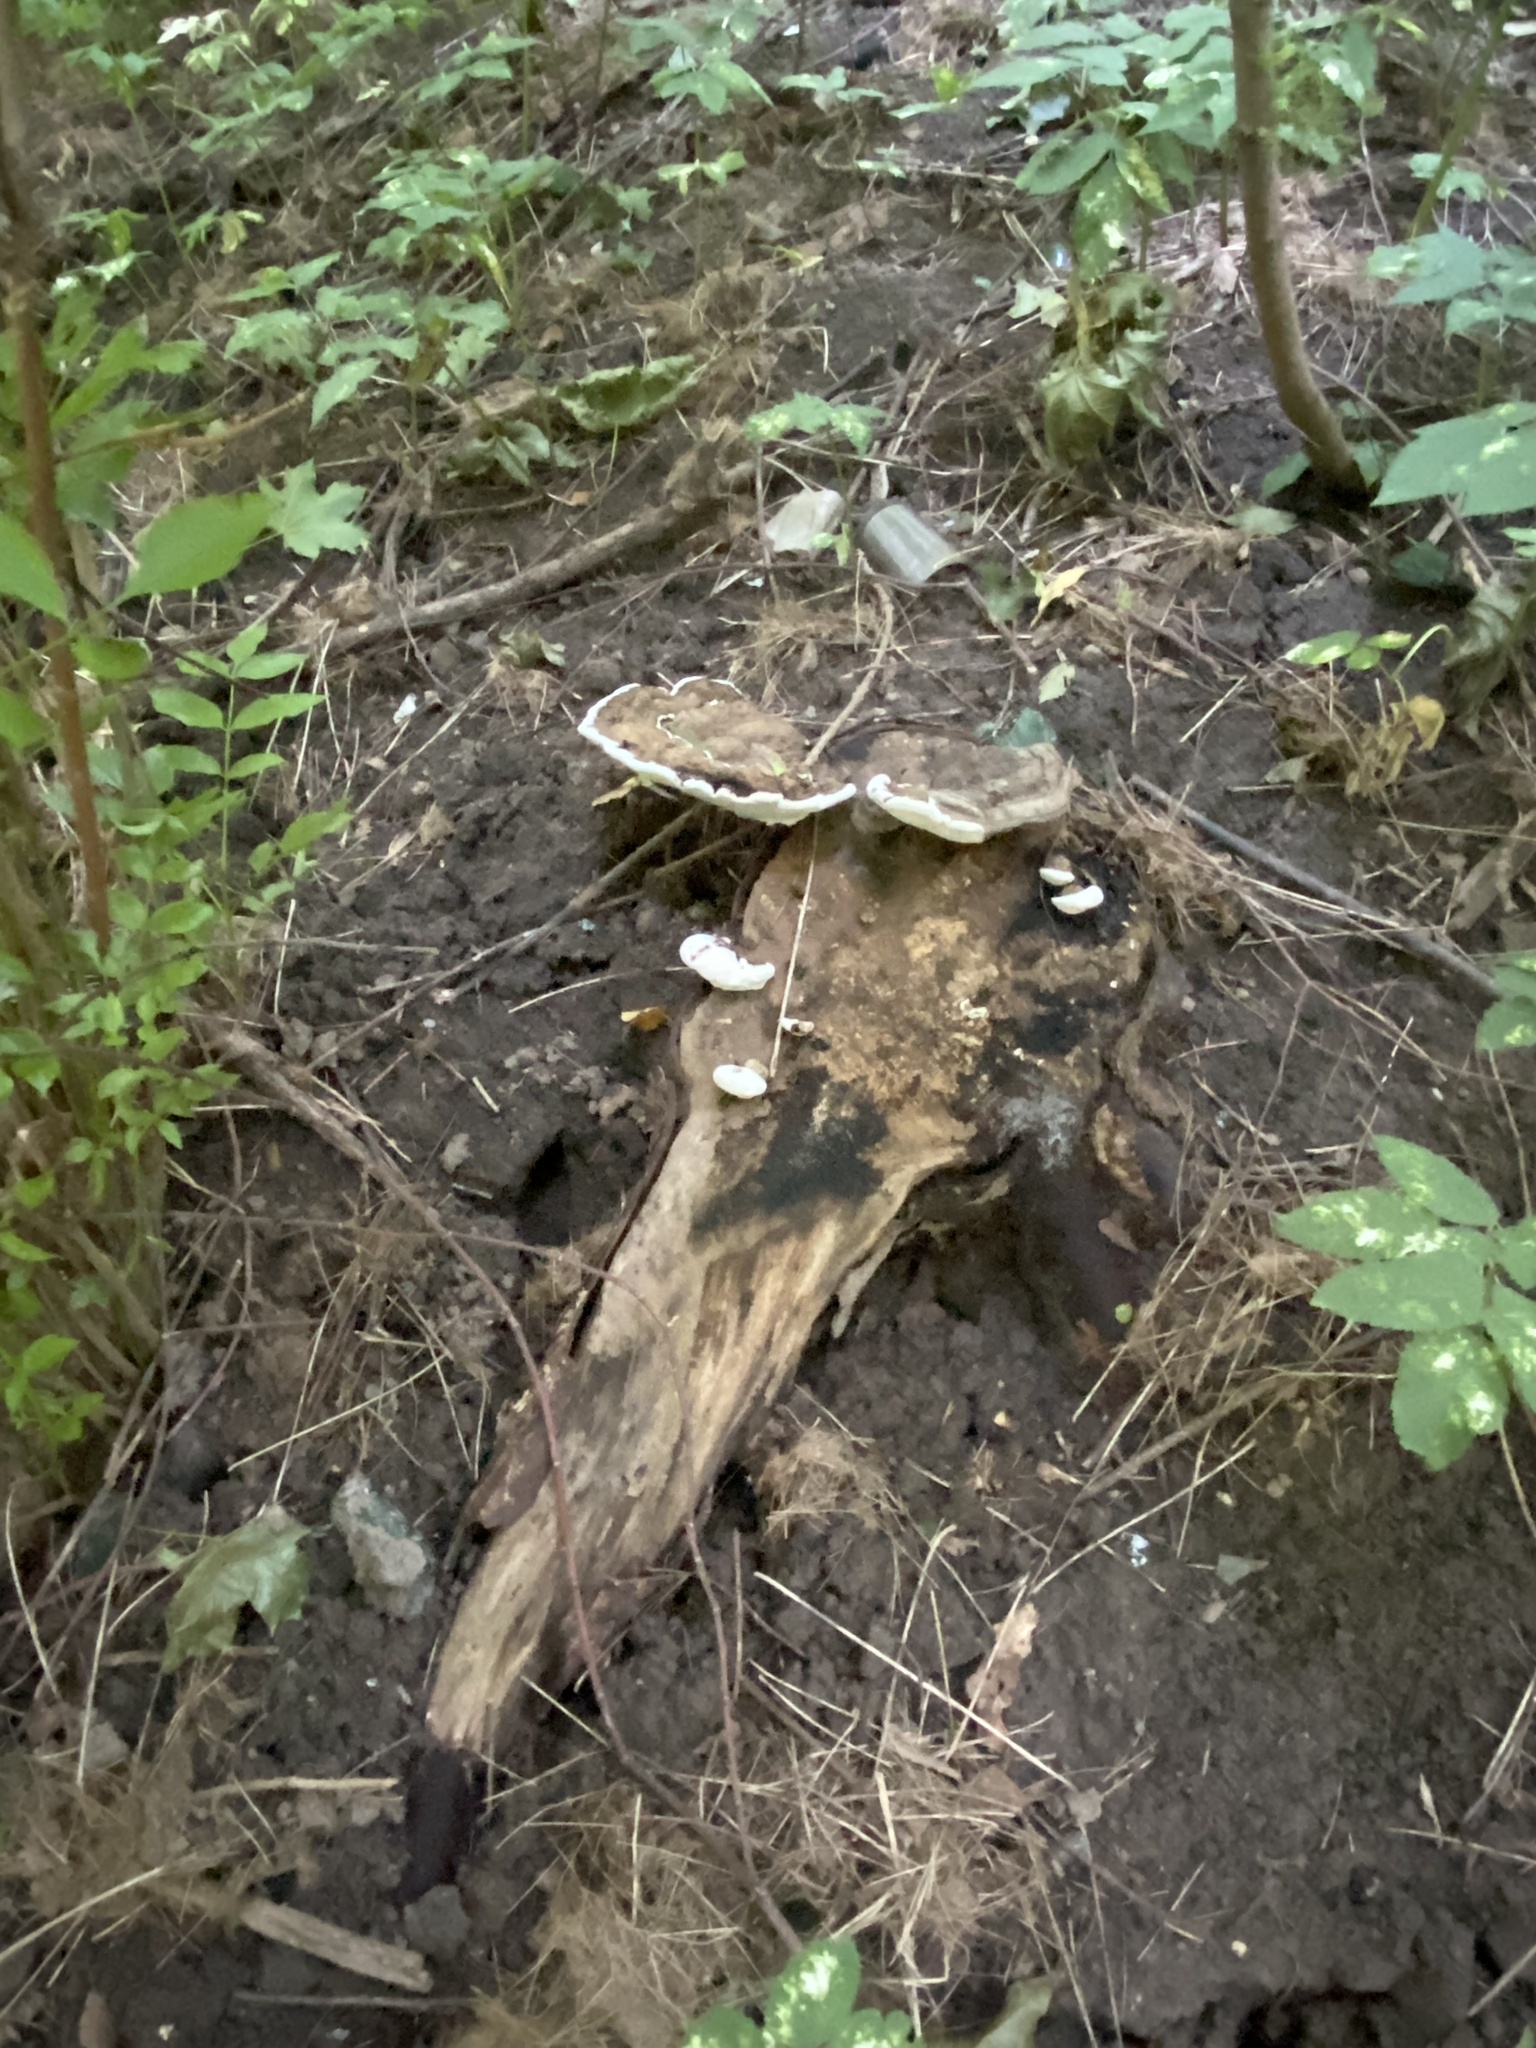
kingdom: Fungi
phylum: Basidiomycota
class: Agaricomycetes
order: Polyporales
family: Polyporaceae
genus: Ganoderma
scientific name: Ganoderma applanatum
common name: Artist's bracket
